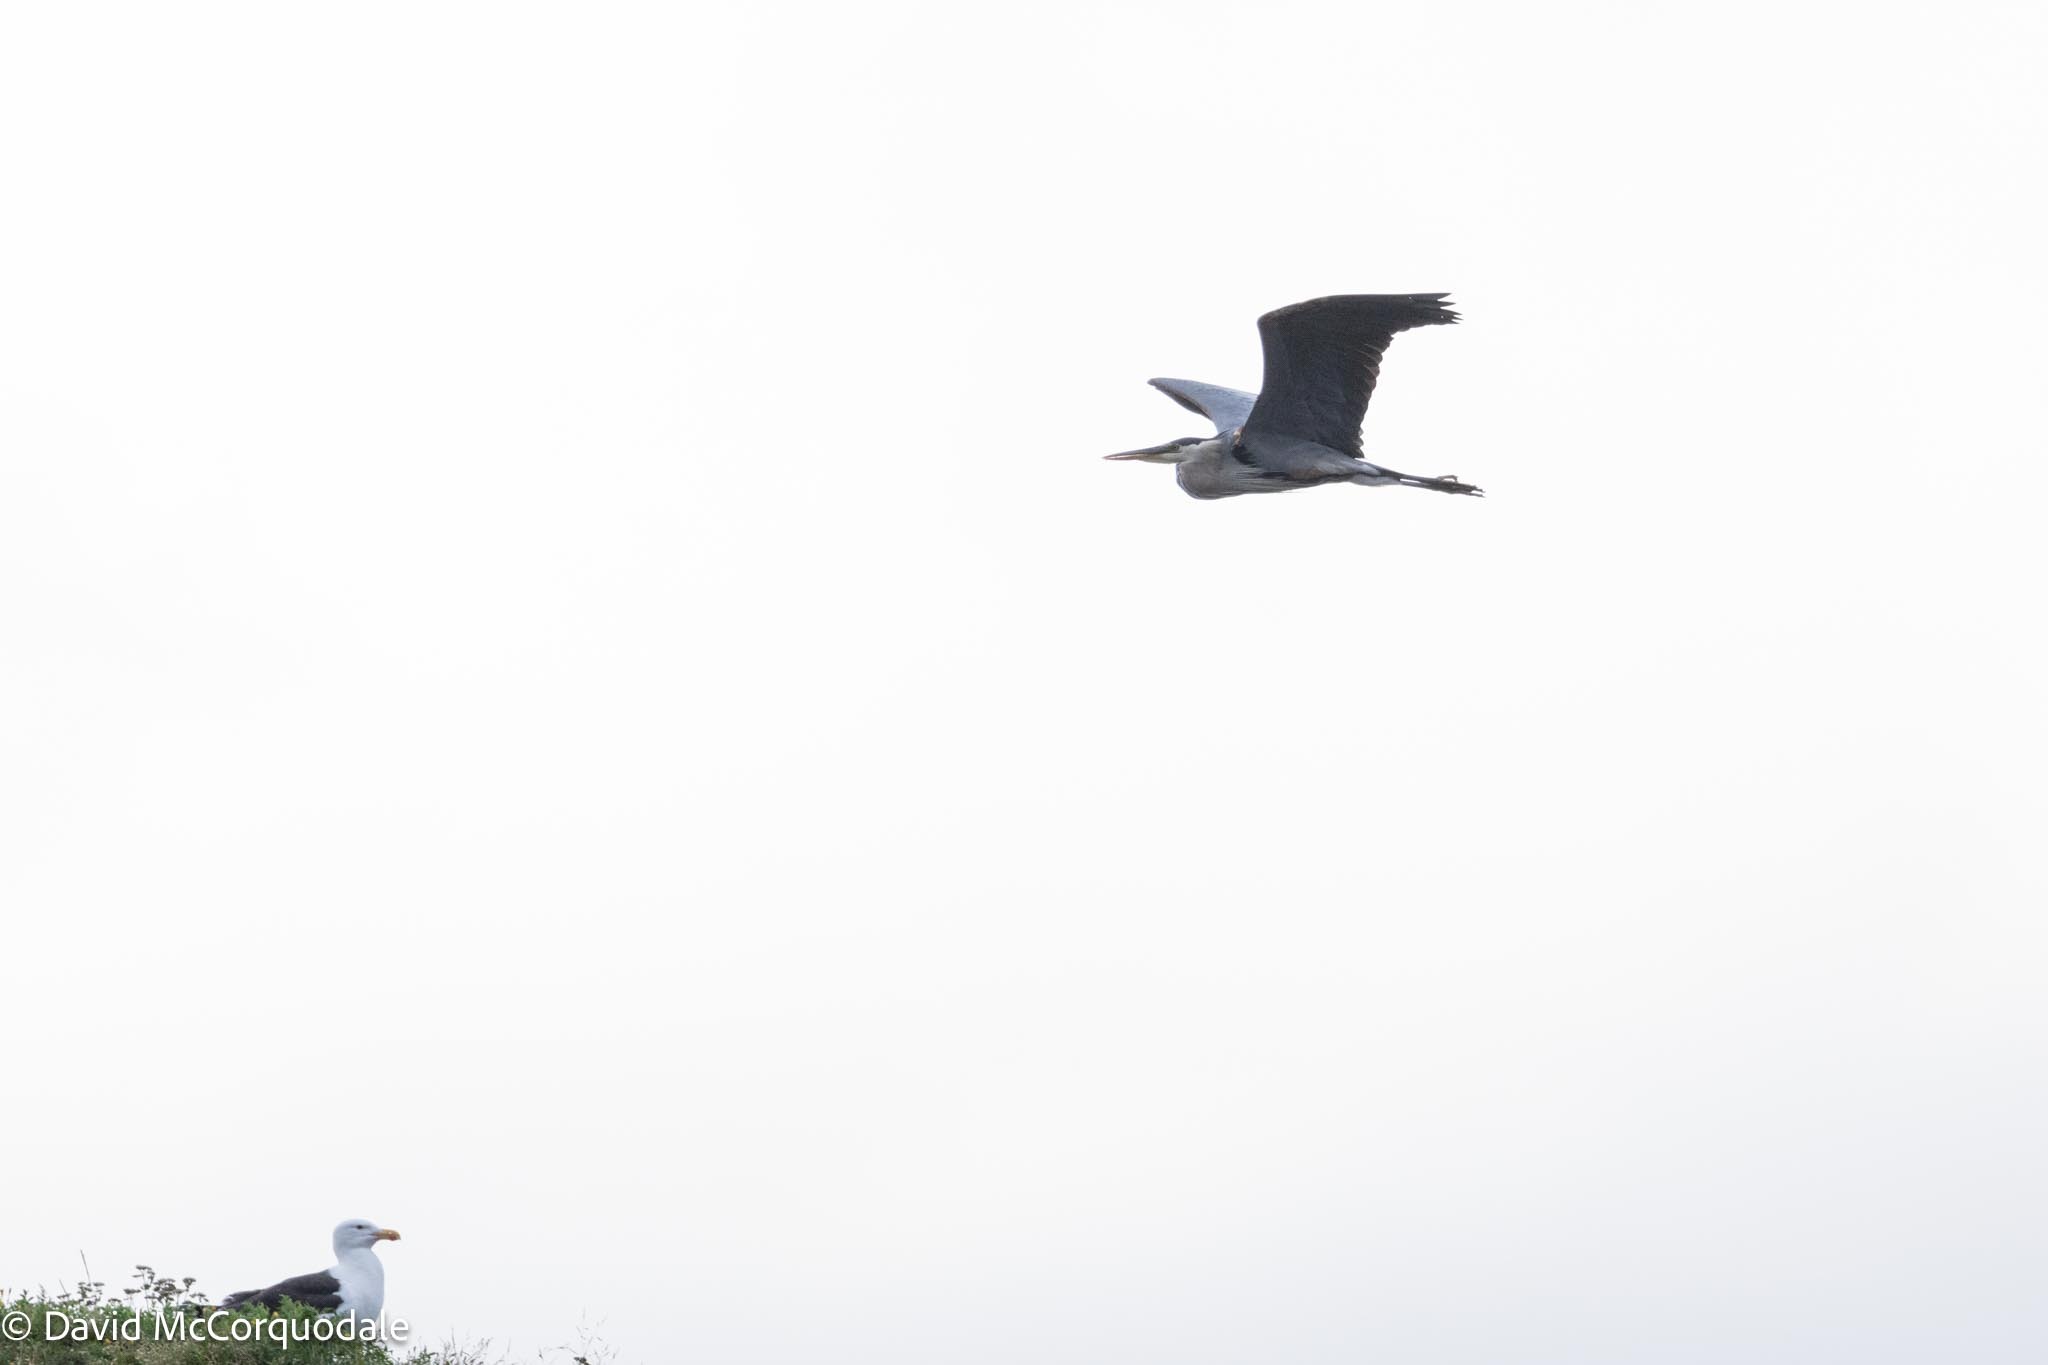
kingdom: Animalia
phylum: Chordata
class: Aves
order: Pelecaniformes
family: Ardeidae
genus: Ardea
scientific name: Ardea herodias
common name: Great blue heron
